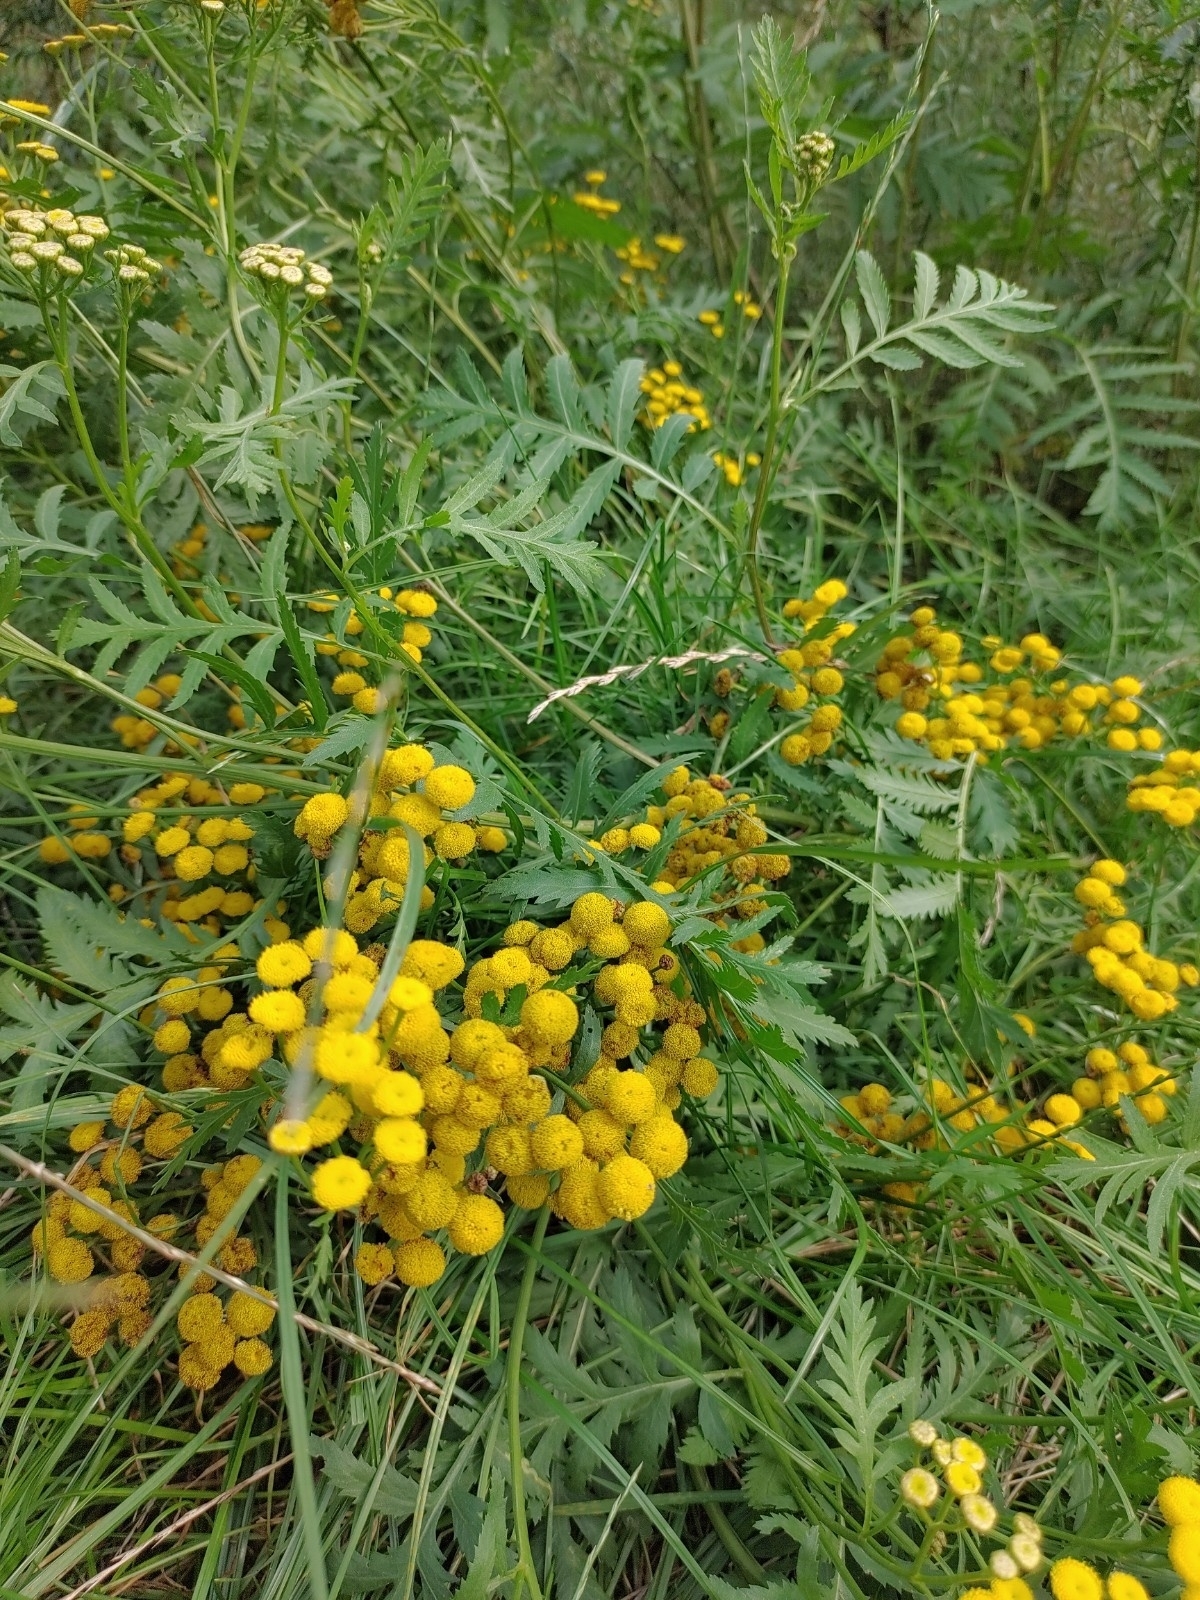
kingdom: Plantae
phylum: Tracheophyta
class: Magnoliopsida
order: Asterales
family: Asteraceae
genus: Tanacetum
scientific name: Tanacetum vulgare
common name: Common tansy
